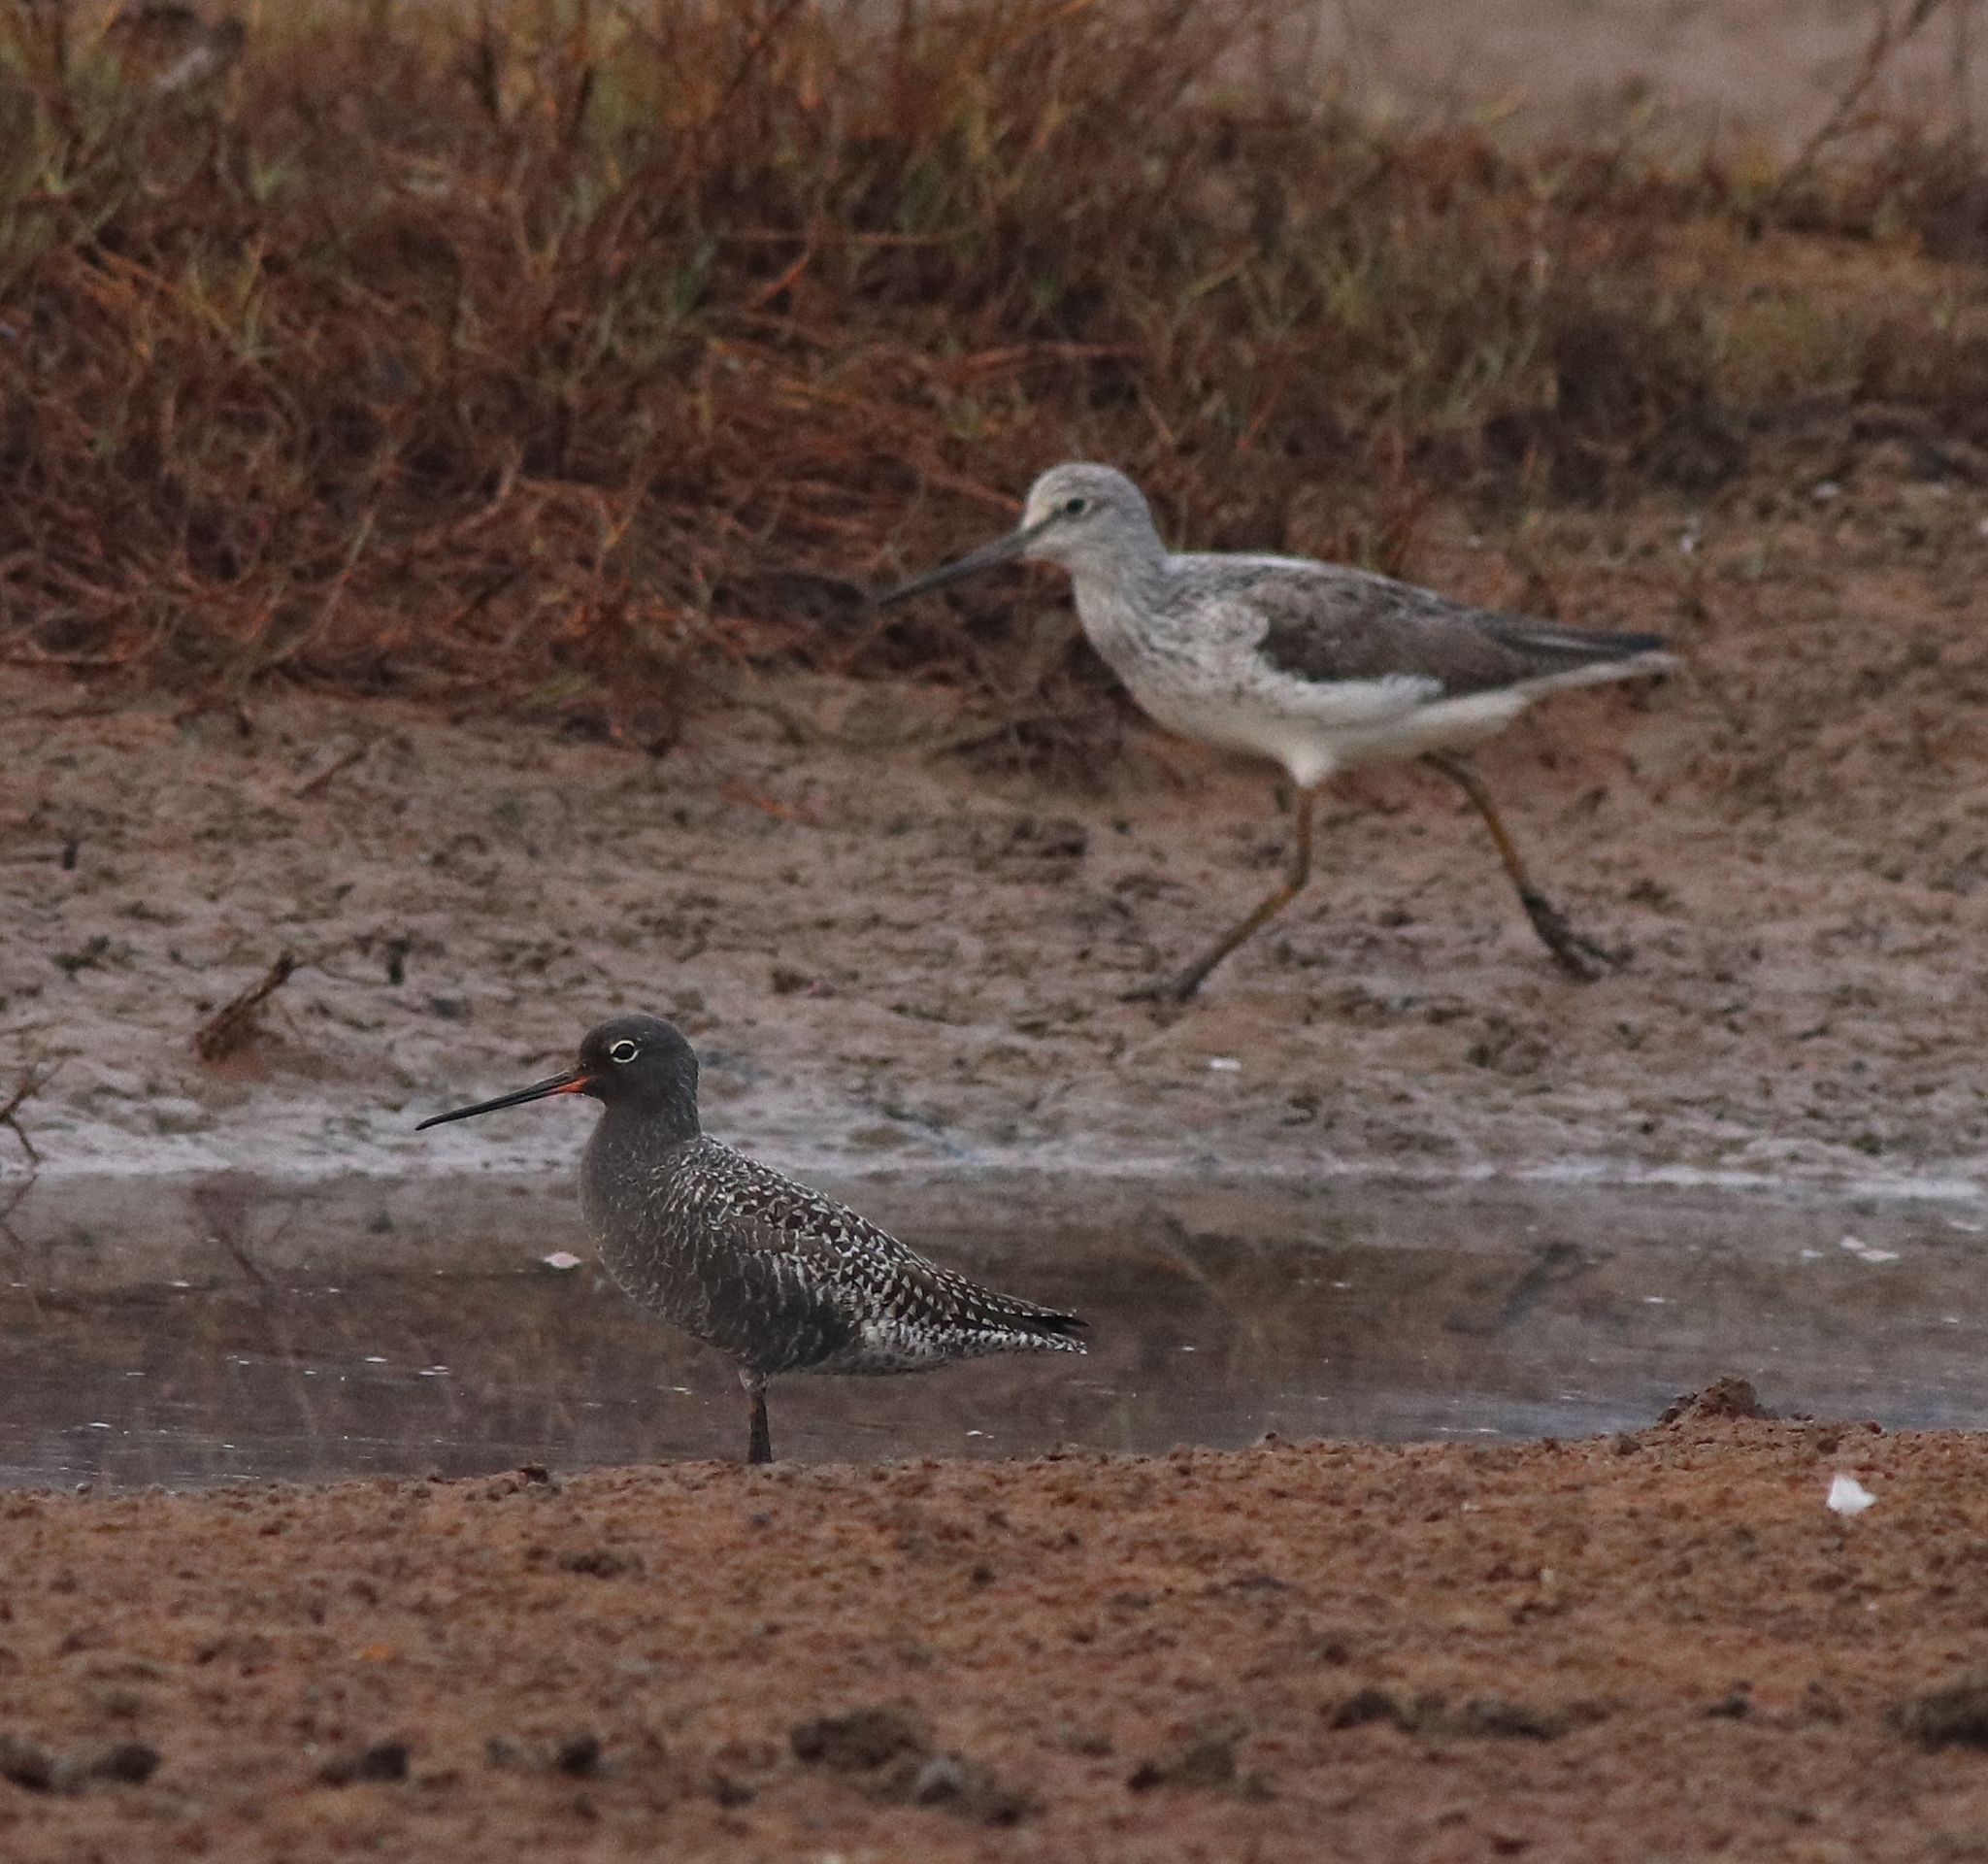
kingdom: Animalia
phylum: Chordata
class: Aves
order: Charadriiformes
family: Scolopacidae
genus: Tringa
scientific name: Tringa nebularia
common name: Common greenshank
